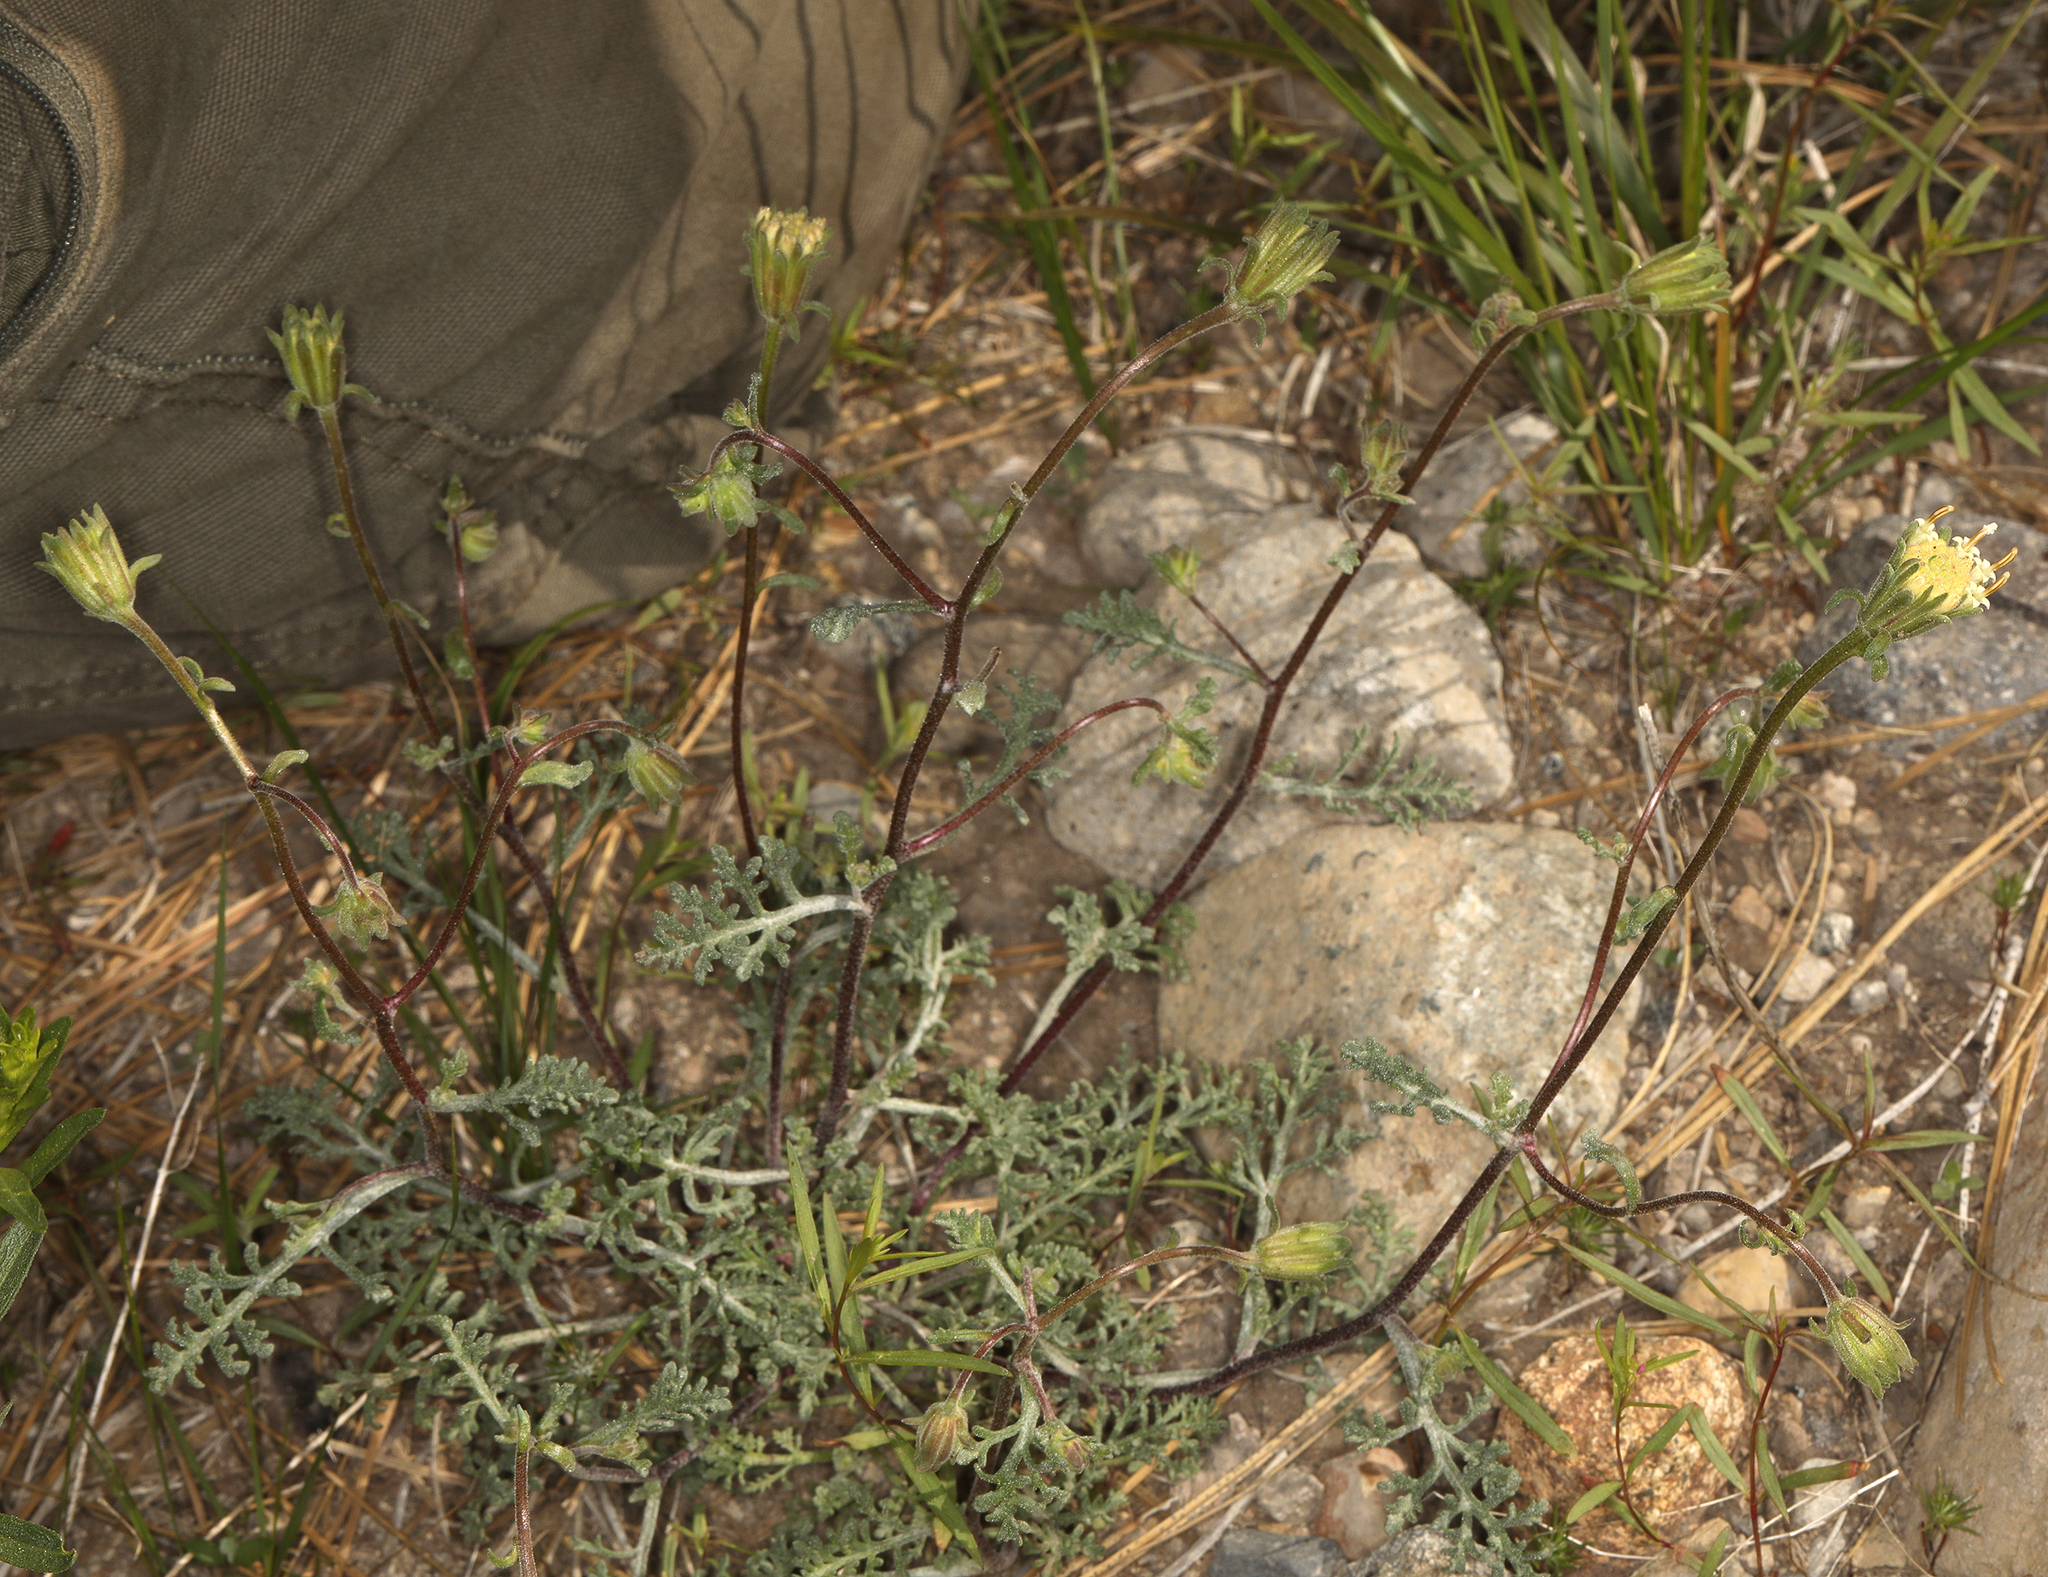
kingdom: Plantae
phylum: Tracheophyta
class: Magnoliopsida
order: Asterales
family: Asteraceae
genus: Chaenactis
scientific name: Chaenactis douglasii
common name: Hoary pincushion
